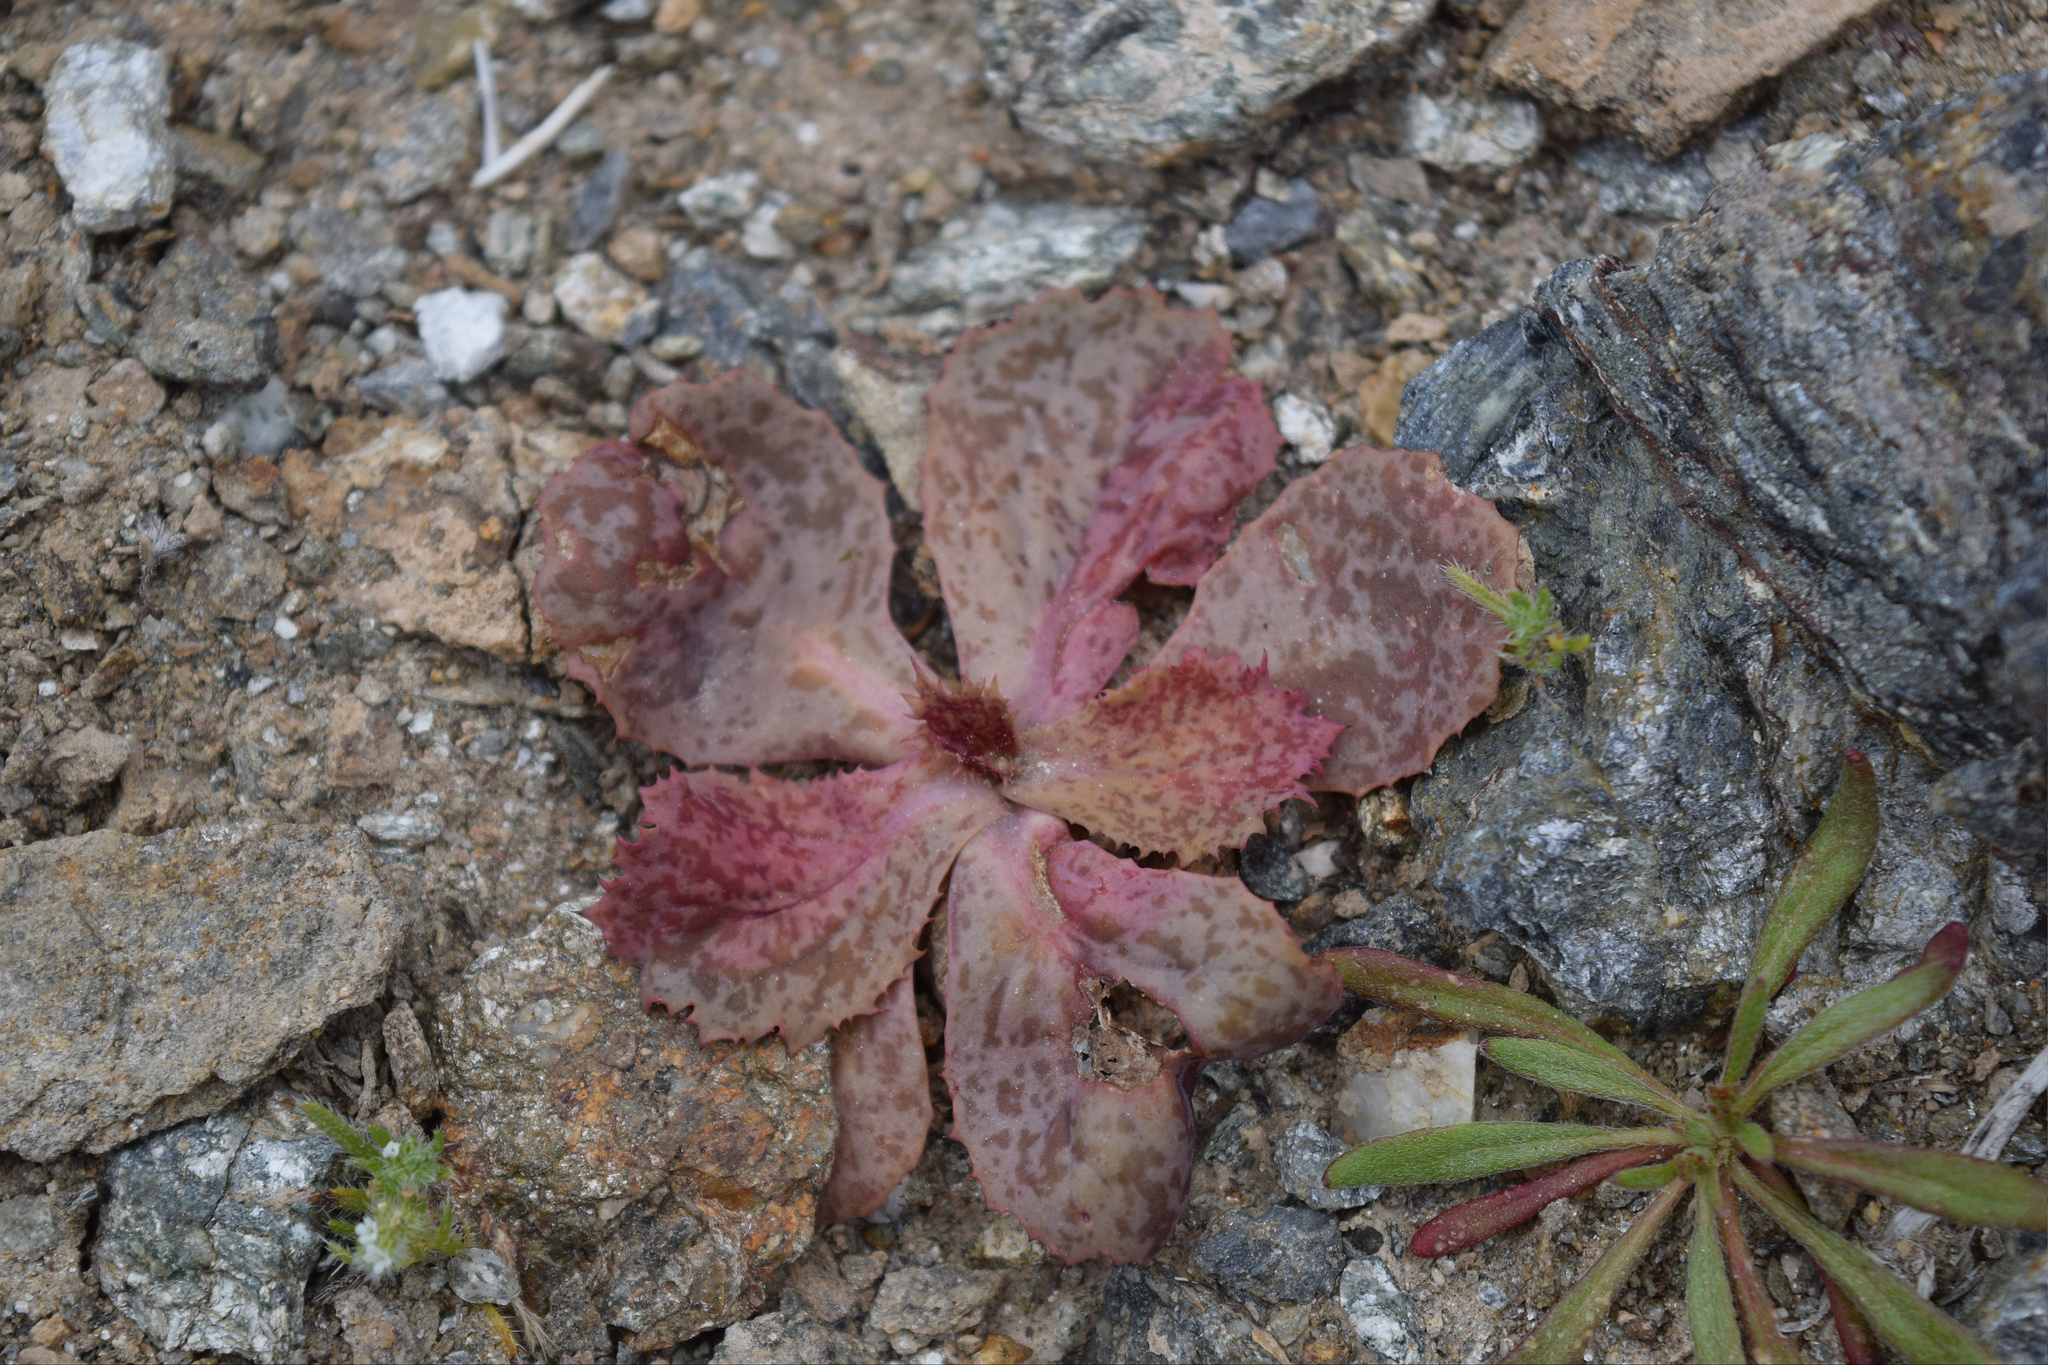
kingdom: Plantae
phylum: Tracheophyta
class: Magnoliopsida
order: Asterales
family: Asteraceae
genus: Atrichoseris
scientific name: Atrichoseris platyphylla
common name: Tobaccoweed
